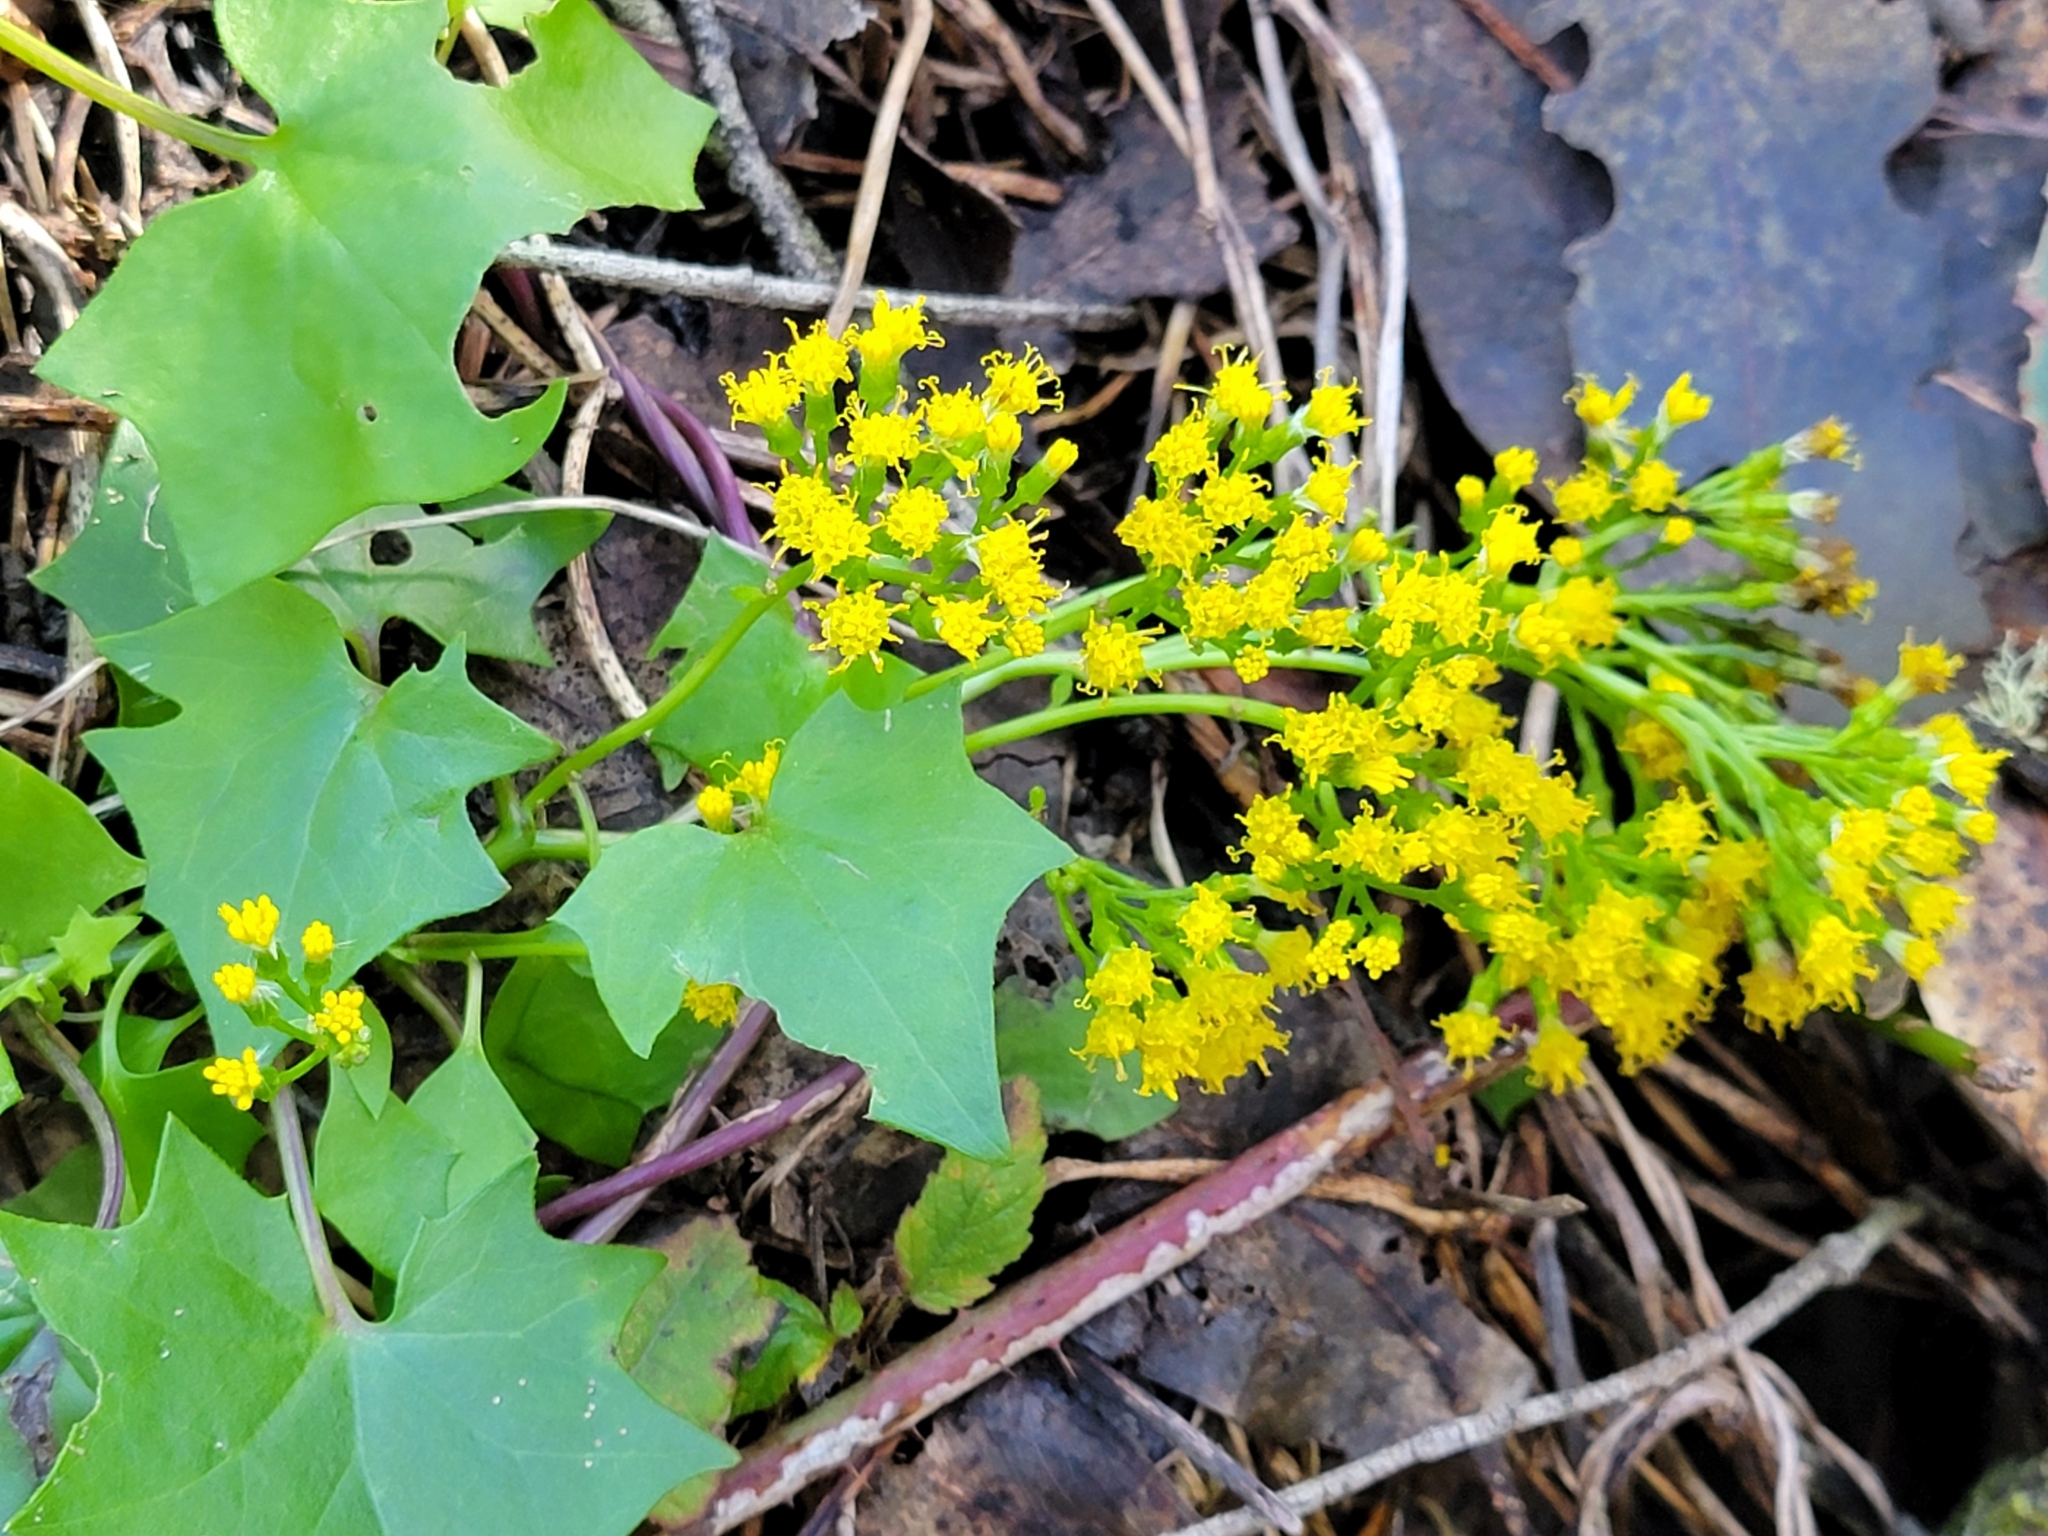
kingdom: Plantae
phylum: Tracheophyta
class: Magnoliopsida
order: Asterales
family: Asteraceae
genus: Delairea
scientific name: Delairea odorata
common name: Cape-ivy
